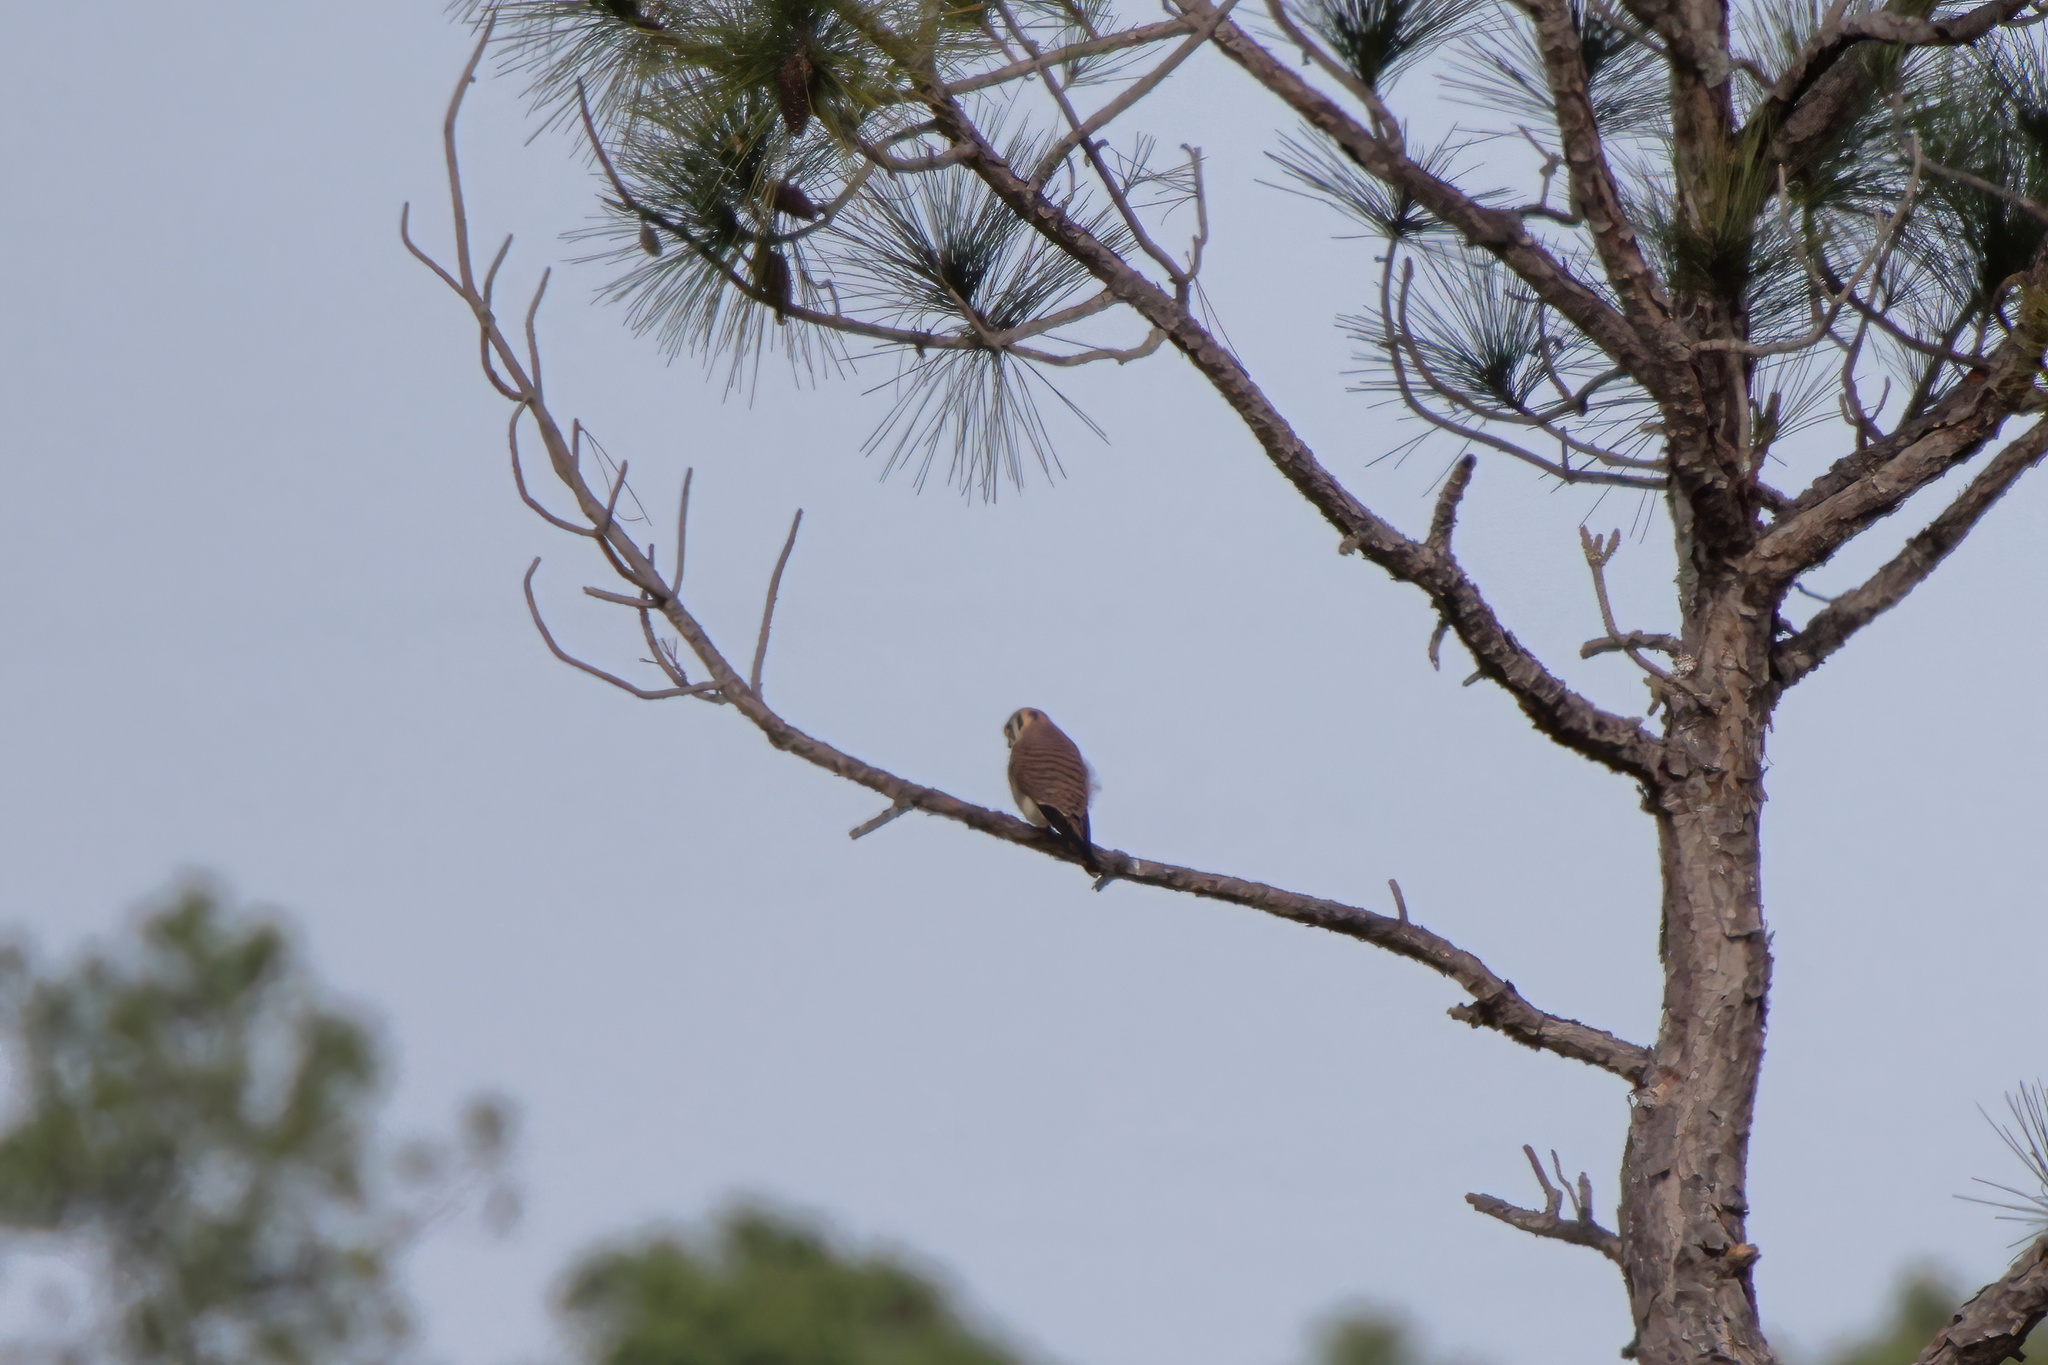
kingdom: Animalia
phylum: Chordata
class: Aves
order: Falconiformes
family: Falconidae
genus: Falco
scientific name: Falco sparverius
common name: American kestrel
